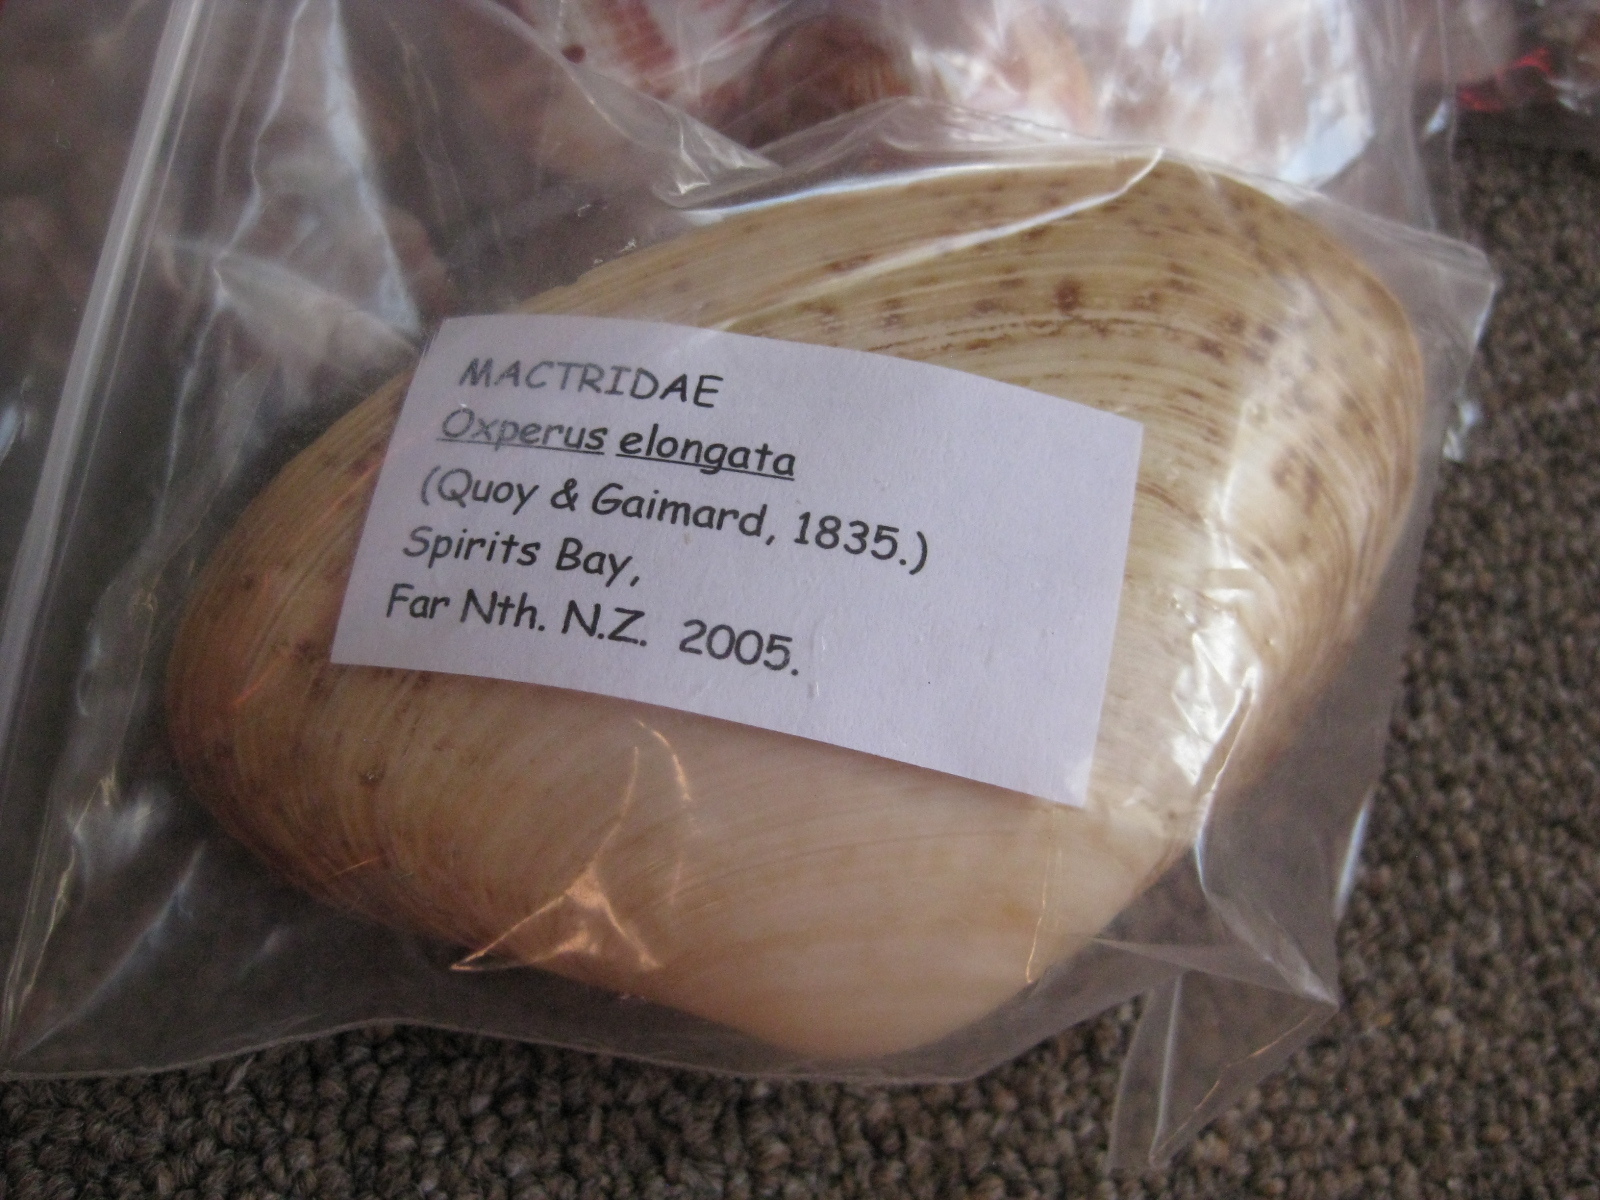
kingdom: Animalia
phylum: Mollusca
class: Bivalvia
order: Venerida
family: Mactridae
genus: Oxyperas
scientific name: Oxyperas elongatum
